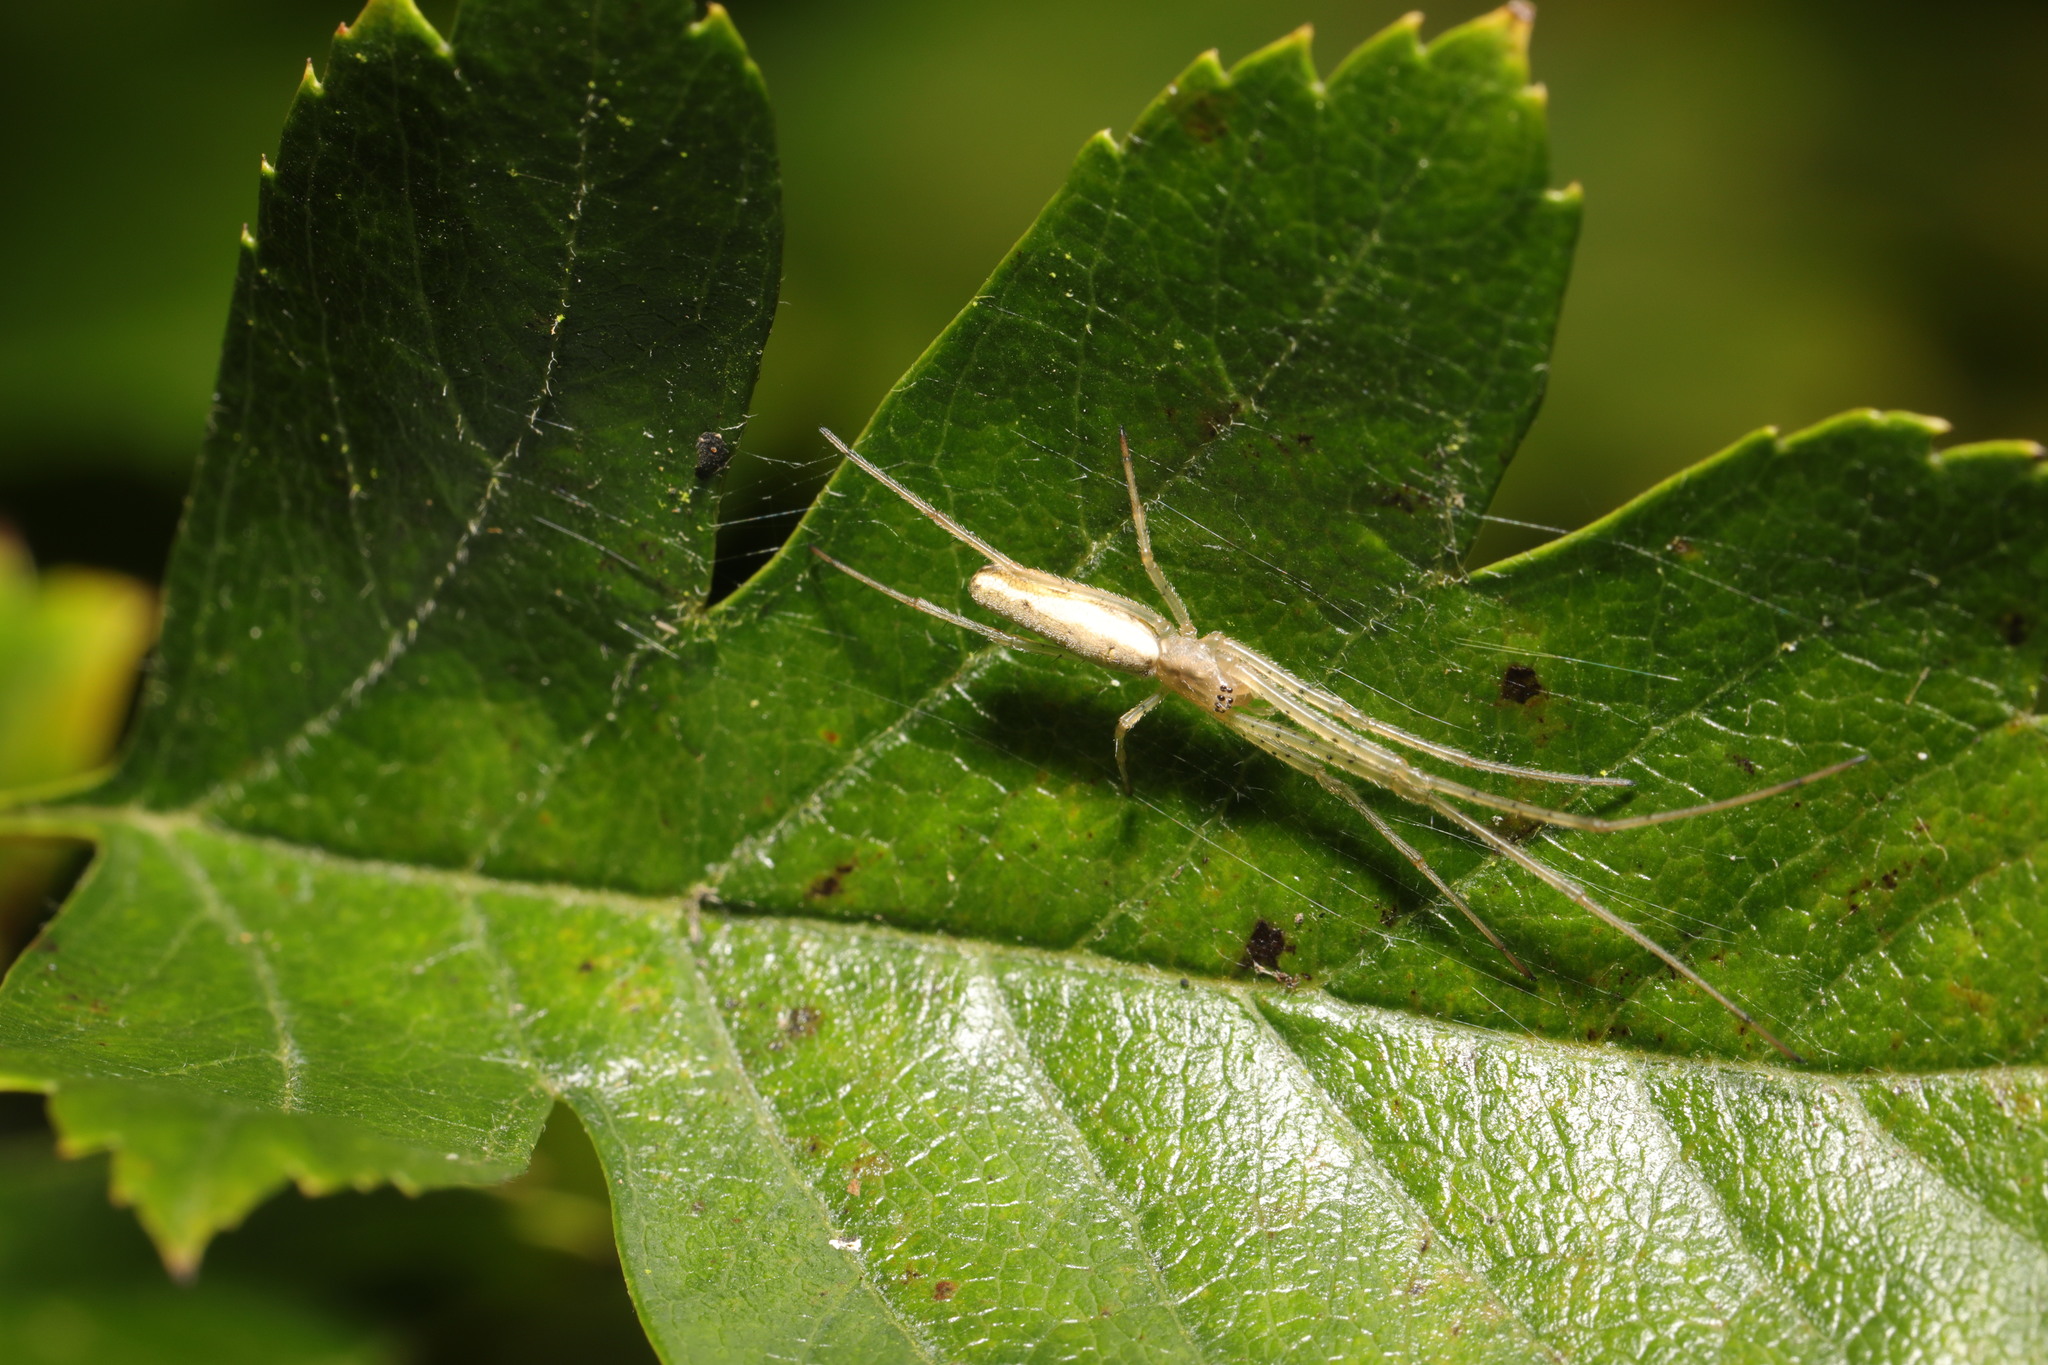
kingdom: Animalia
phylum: Arthropoda
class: Arachnida
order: Araneae
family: Tetragnathidae
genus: Tetragnatha
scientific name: Tetragnatha extensa
